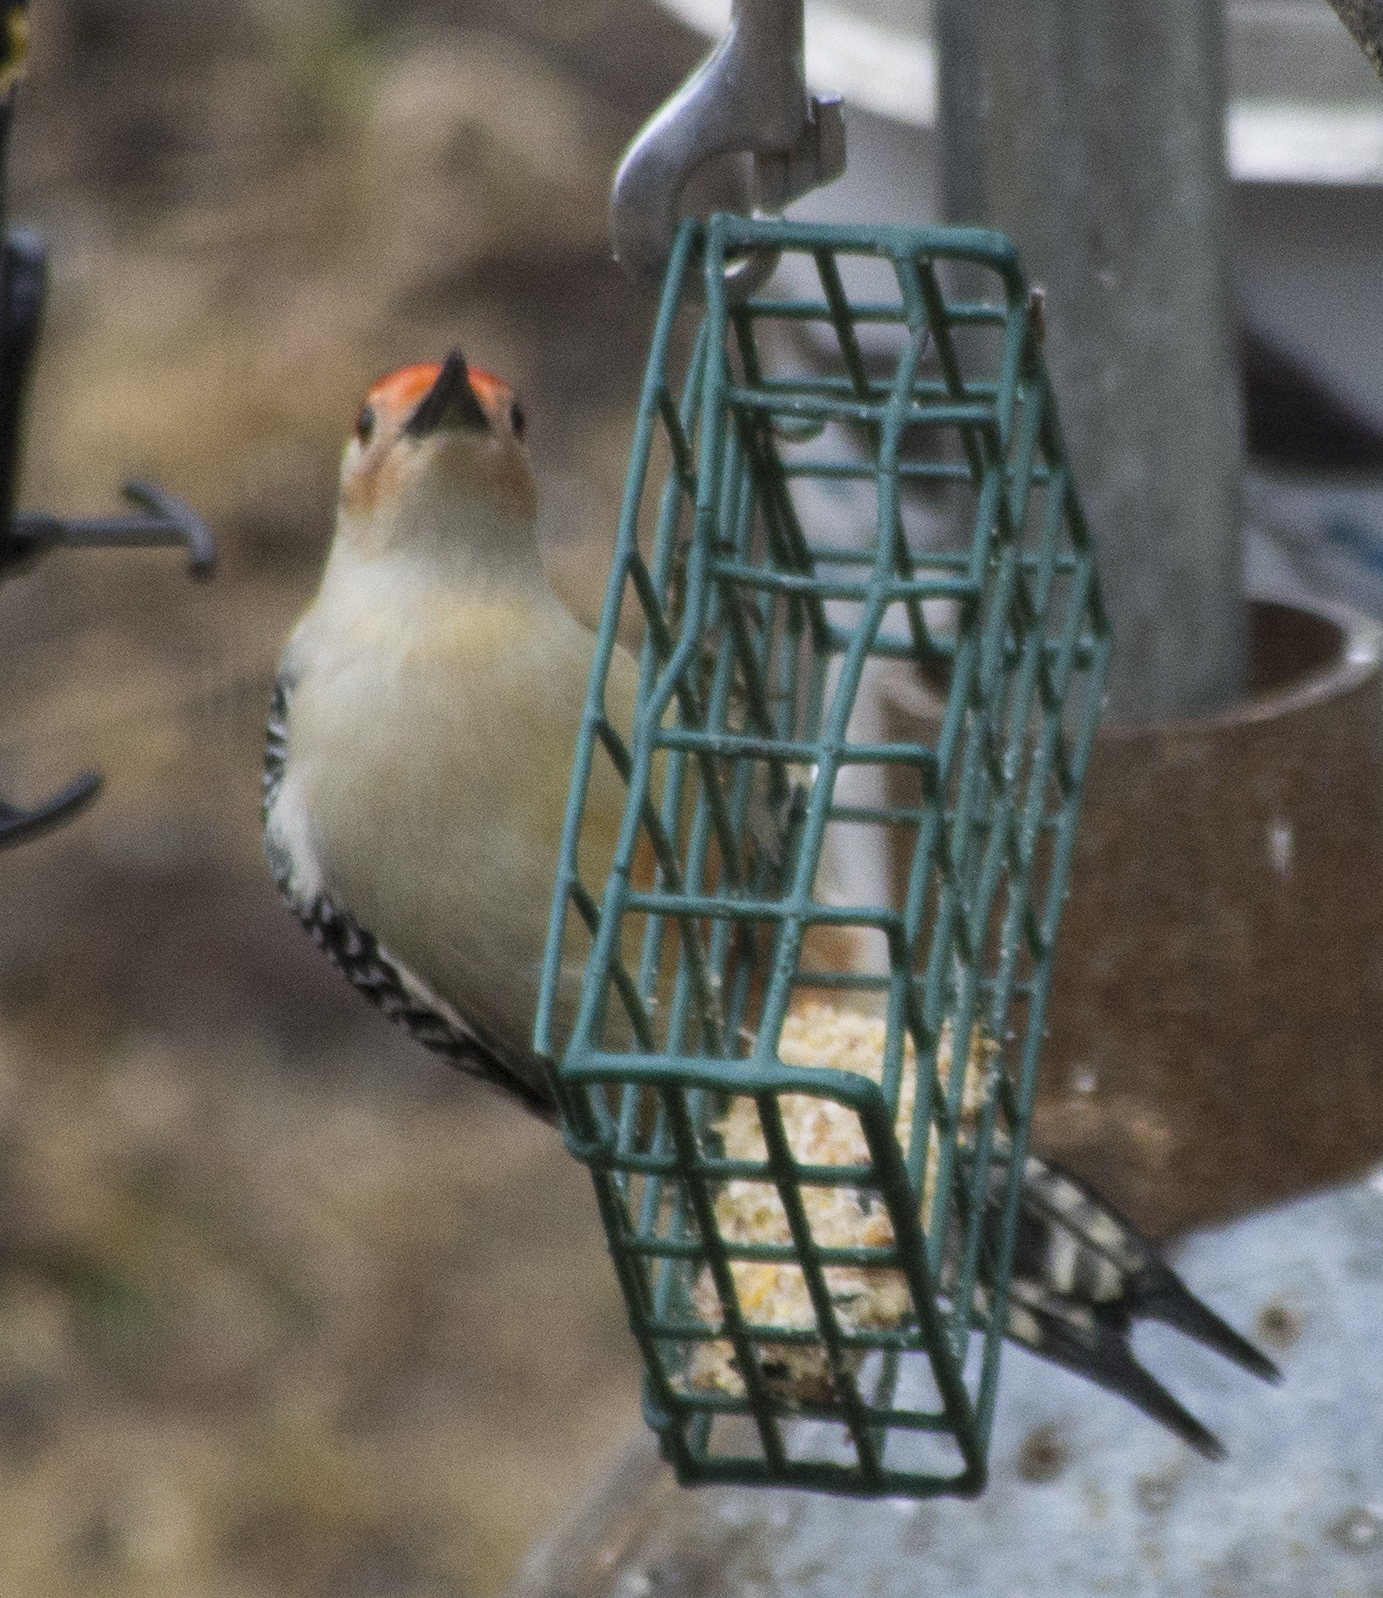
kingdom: Animalia
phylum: Chordata
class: Aves
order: Piciformes
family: Picidae
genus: Melanerpes
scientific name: Melanerpes carolinus
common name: Red-bellied woodpecker
